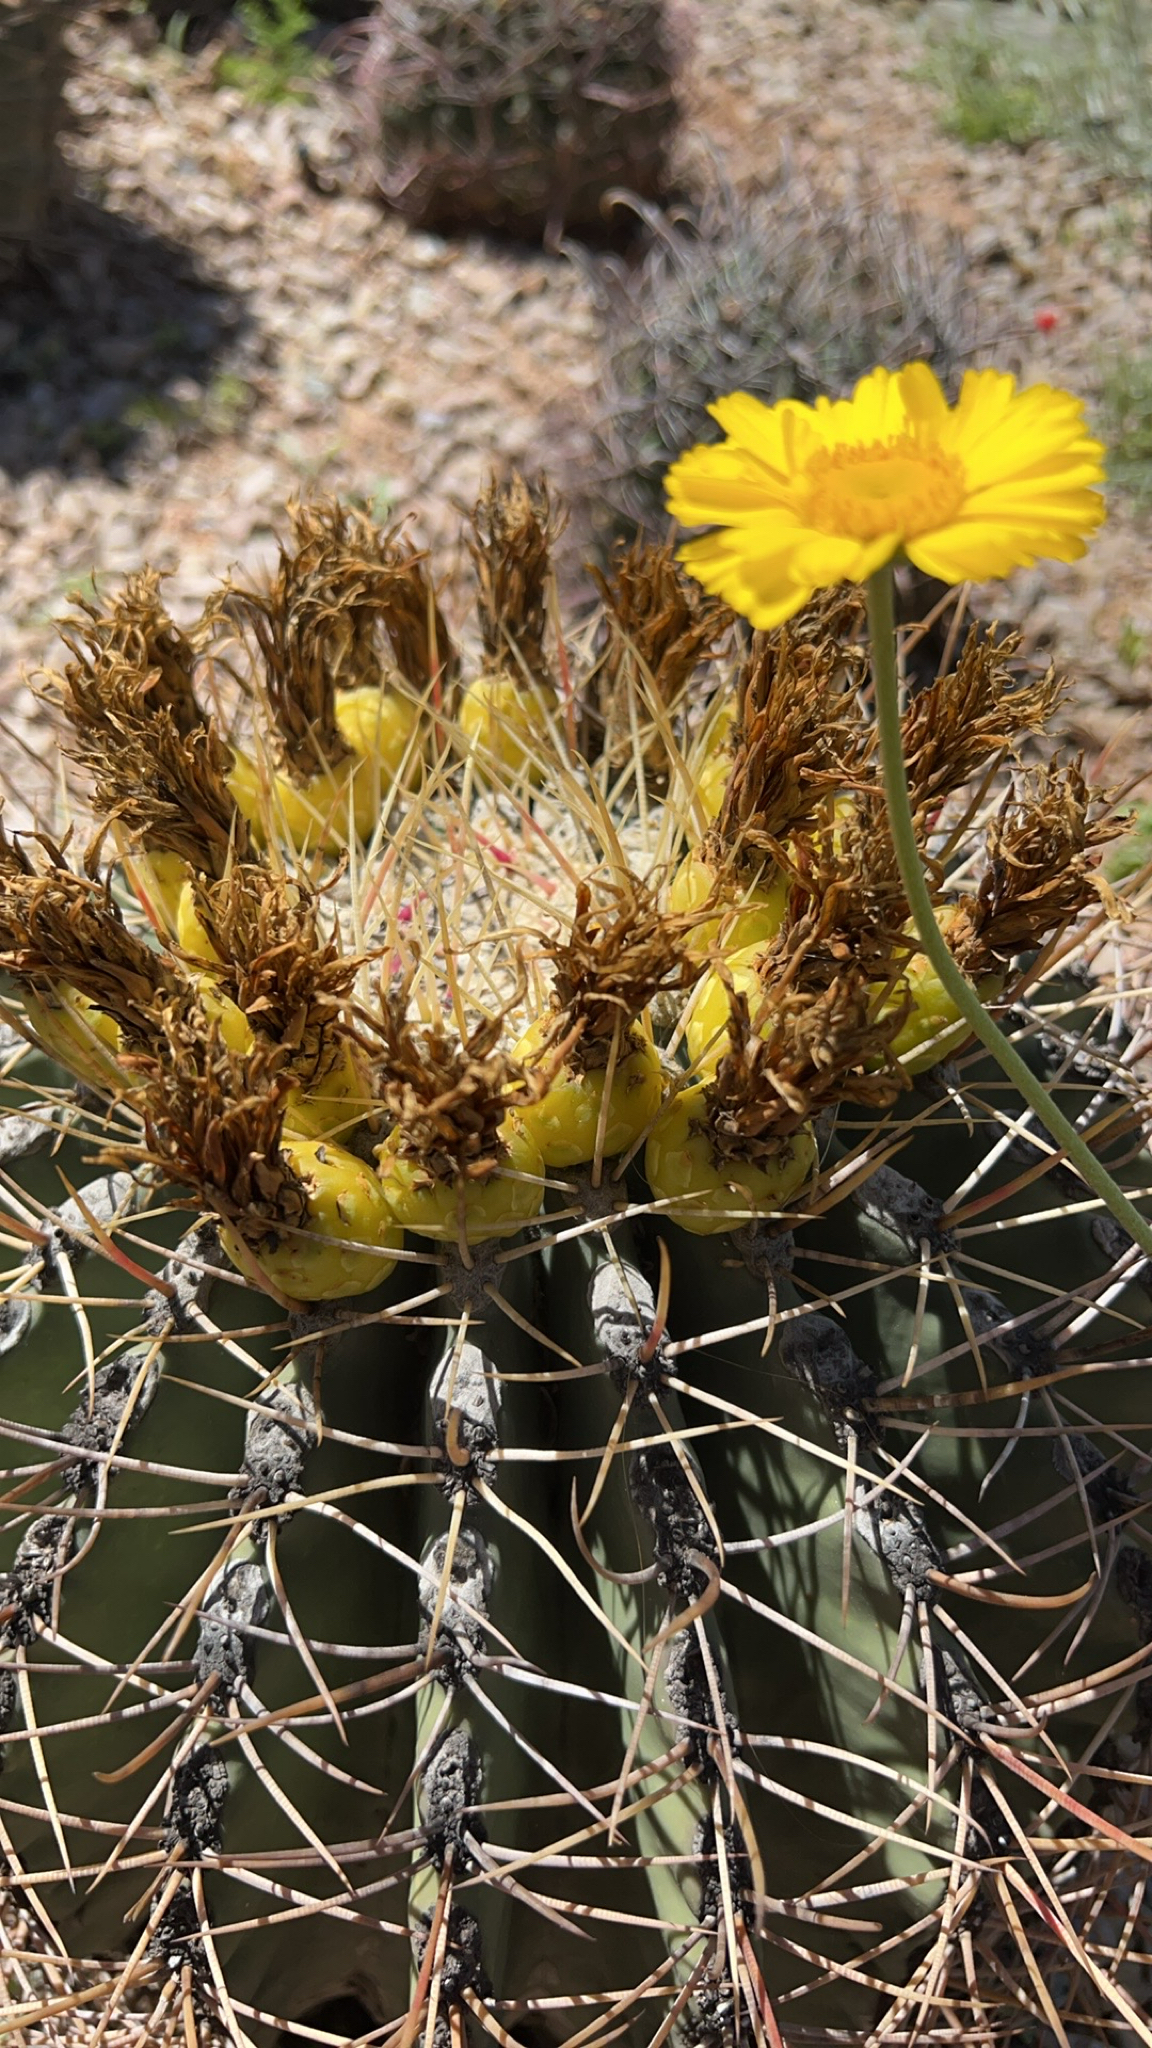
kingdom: Plantae
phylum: Tracheophyta
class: Magnoliopsida
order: Caryophyllales
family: Cactaceae
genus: Ferocactus
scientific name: Ferocactus emoryi
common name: Emory's barrel cactus
